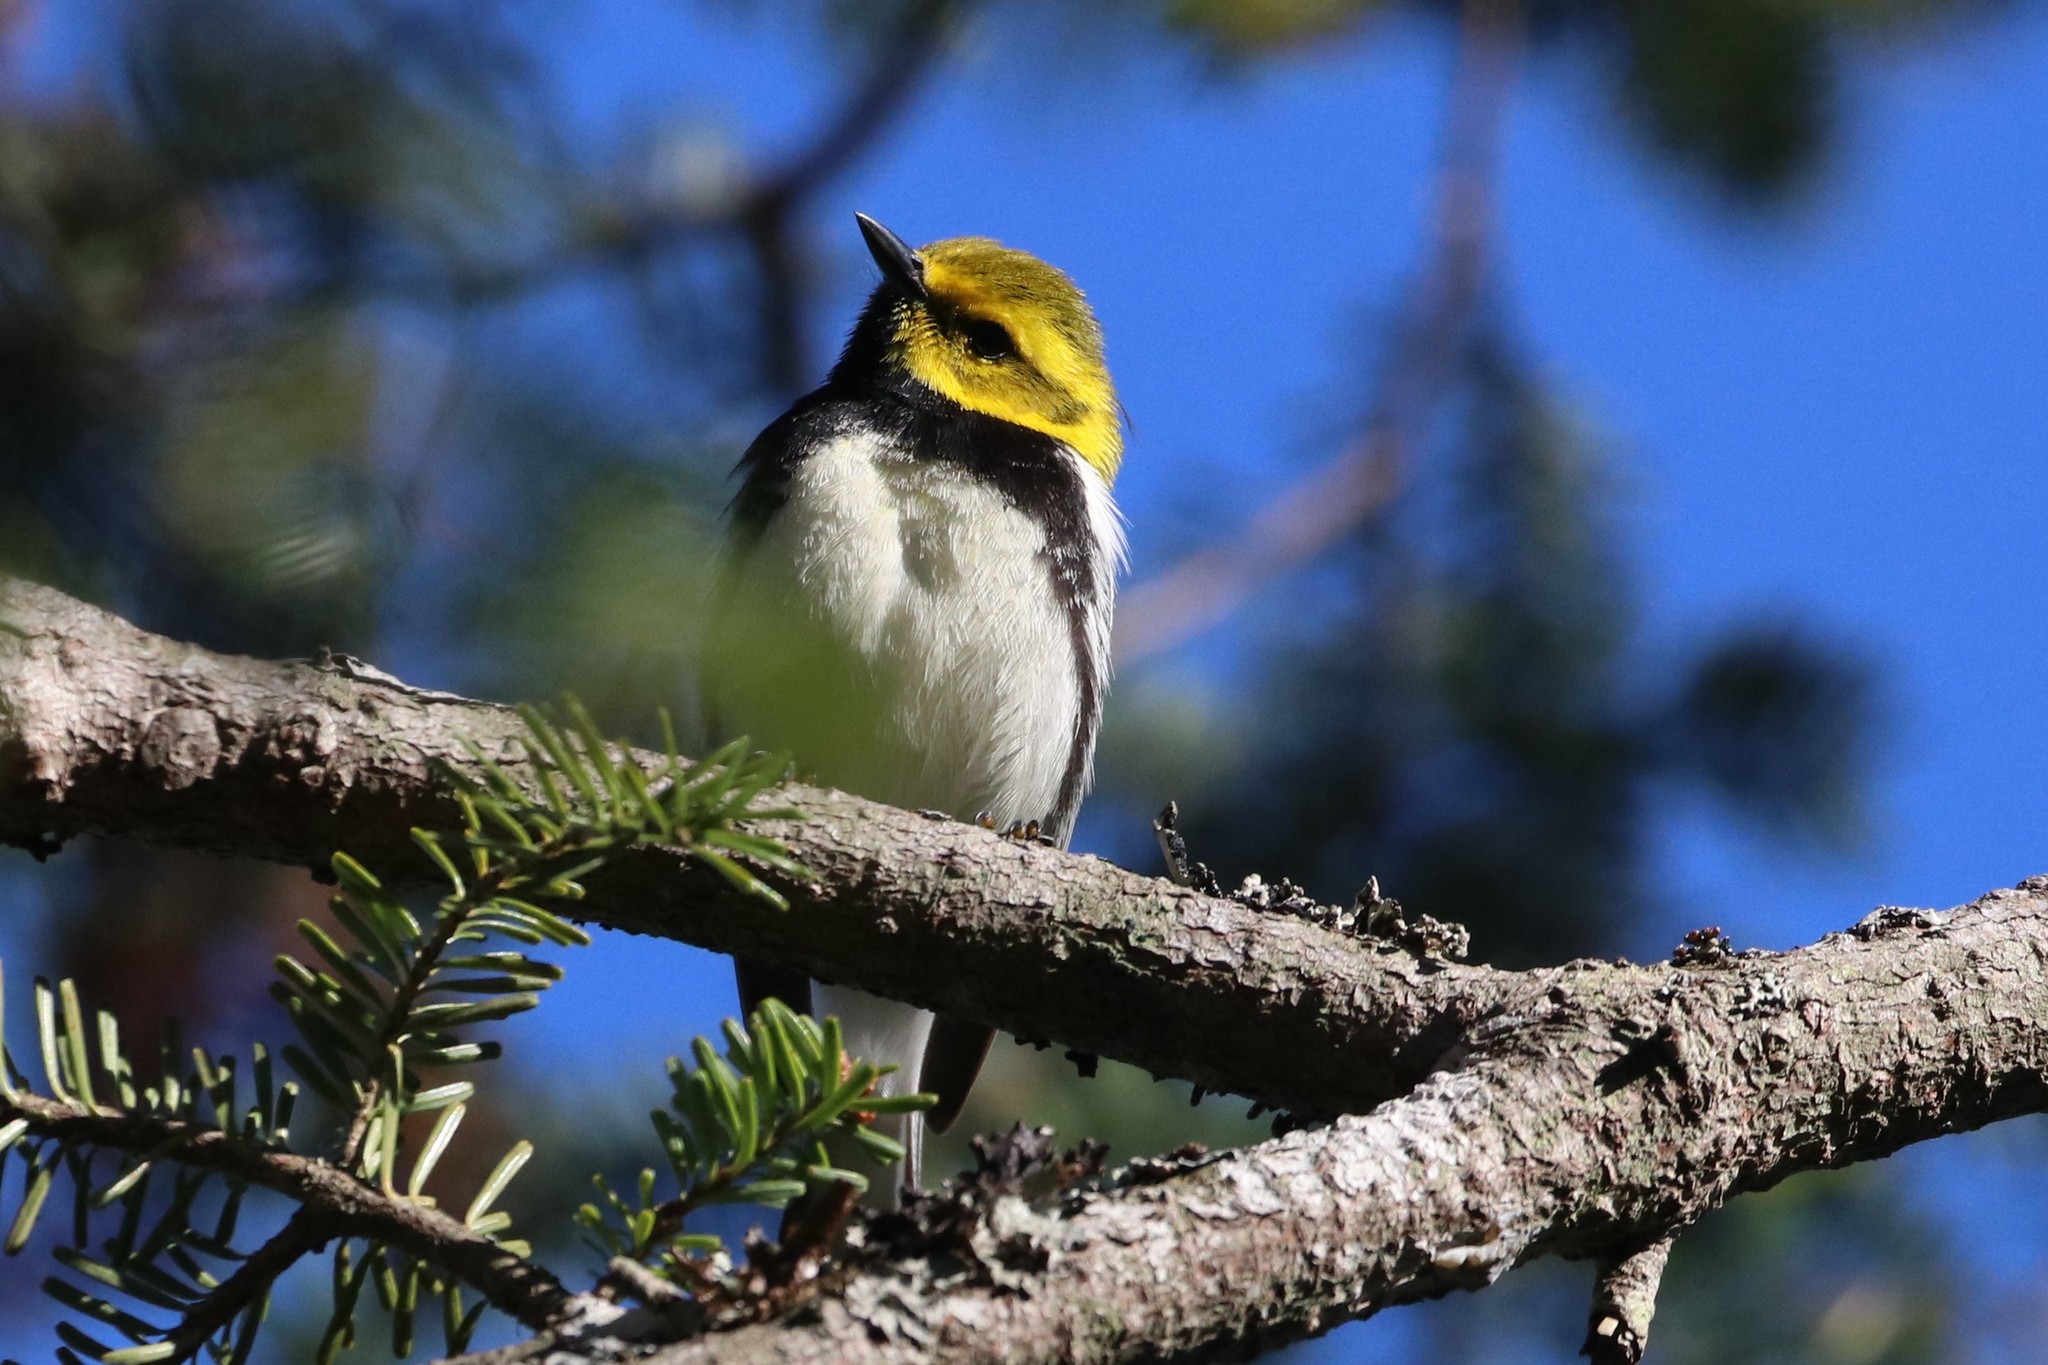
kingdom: Animalia
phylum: Chordata
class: Aves
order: Passeriformes
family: Parulidae
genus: Setophaga
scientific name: Setophaga virens
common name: Black-throated green warbler
